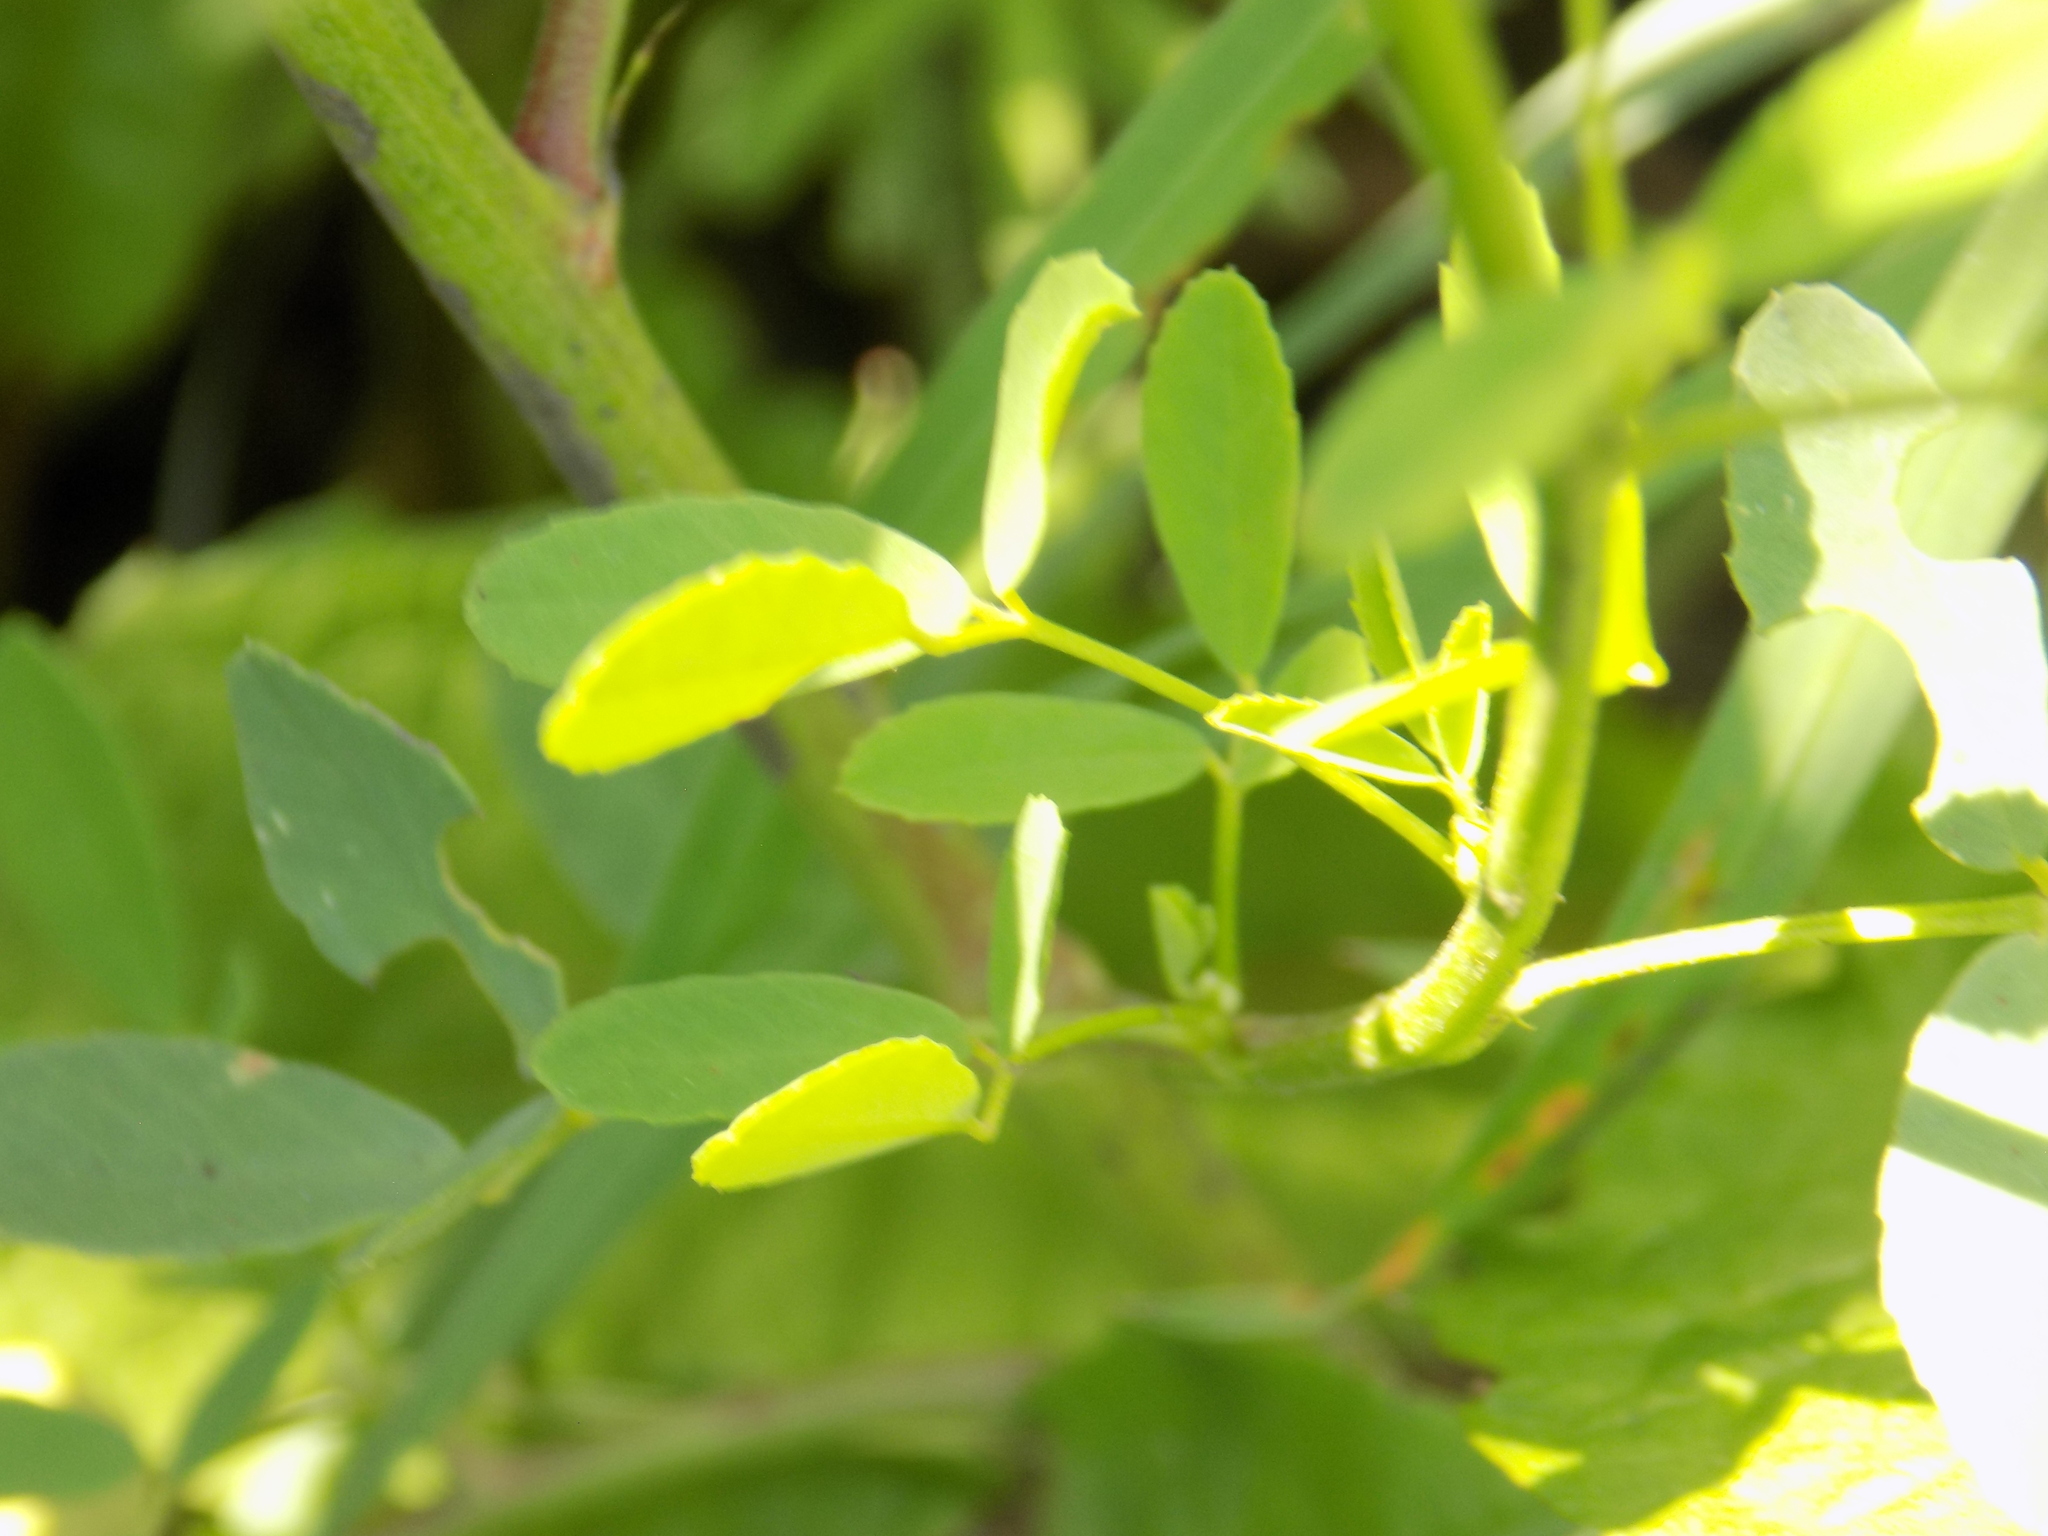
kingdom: Plantae
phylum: Tracheophyta
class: Magnoliopsida
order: Fabales
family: Fabaceae
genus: Melilotus
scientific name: Melilotus officinalis
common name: Sweetclover
